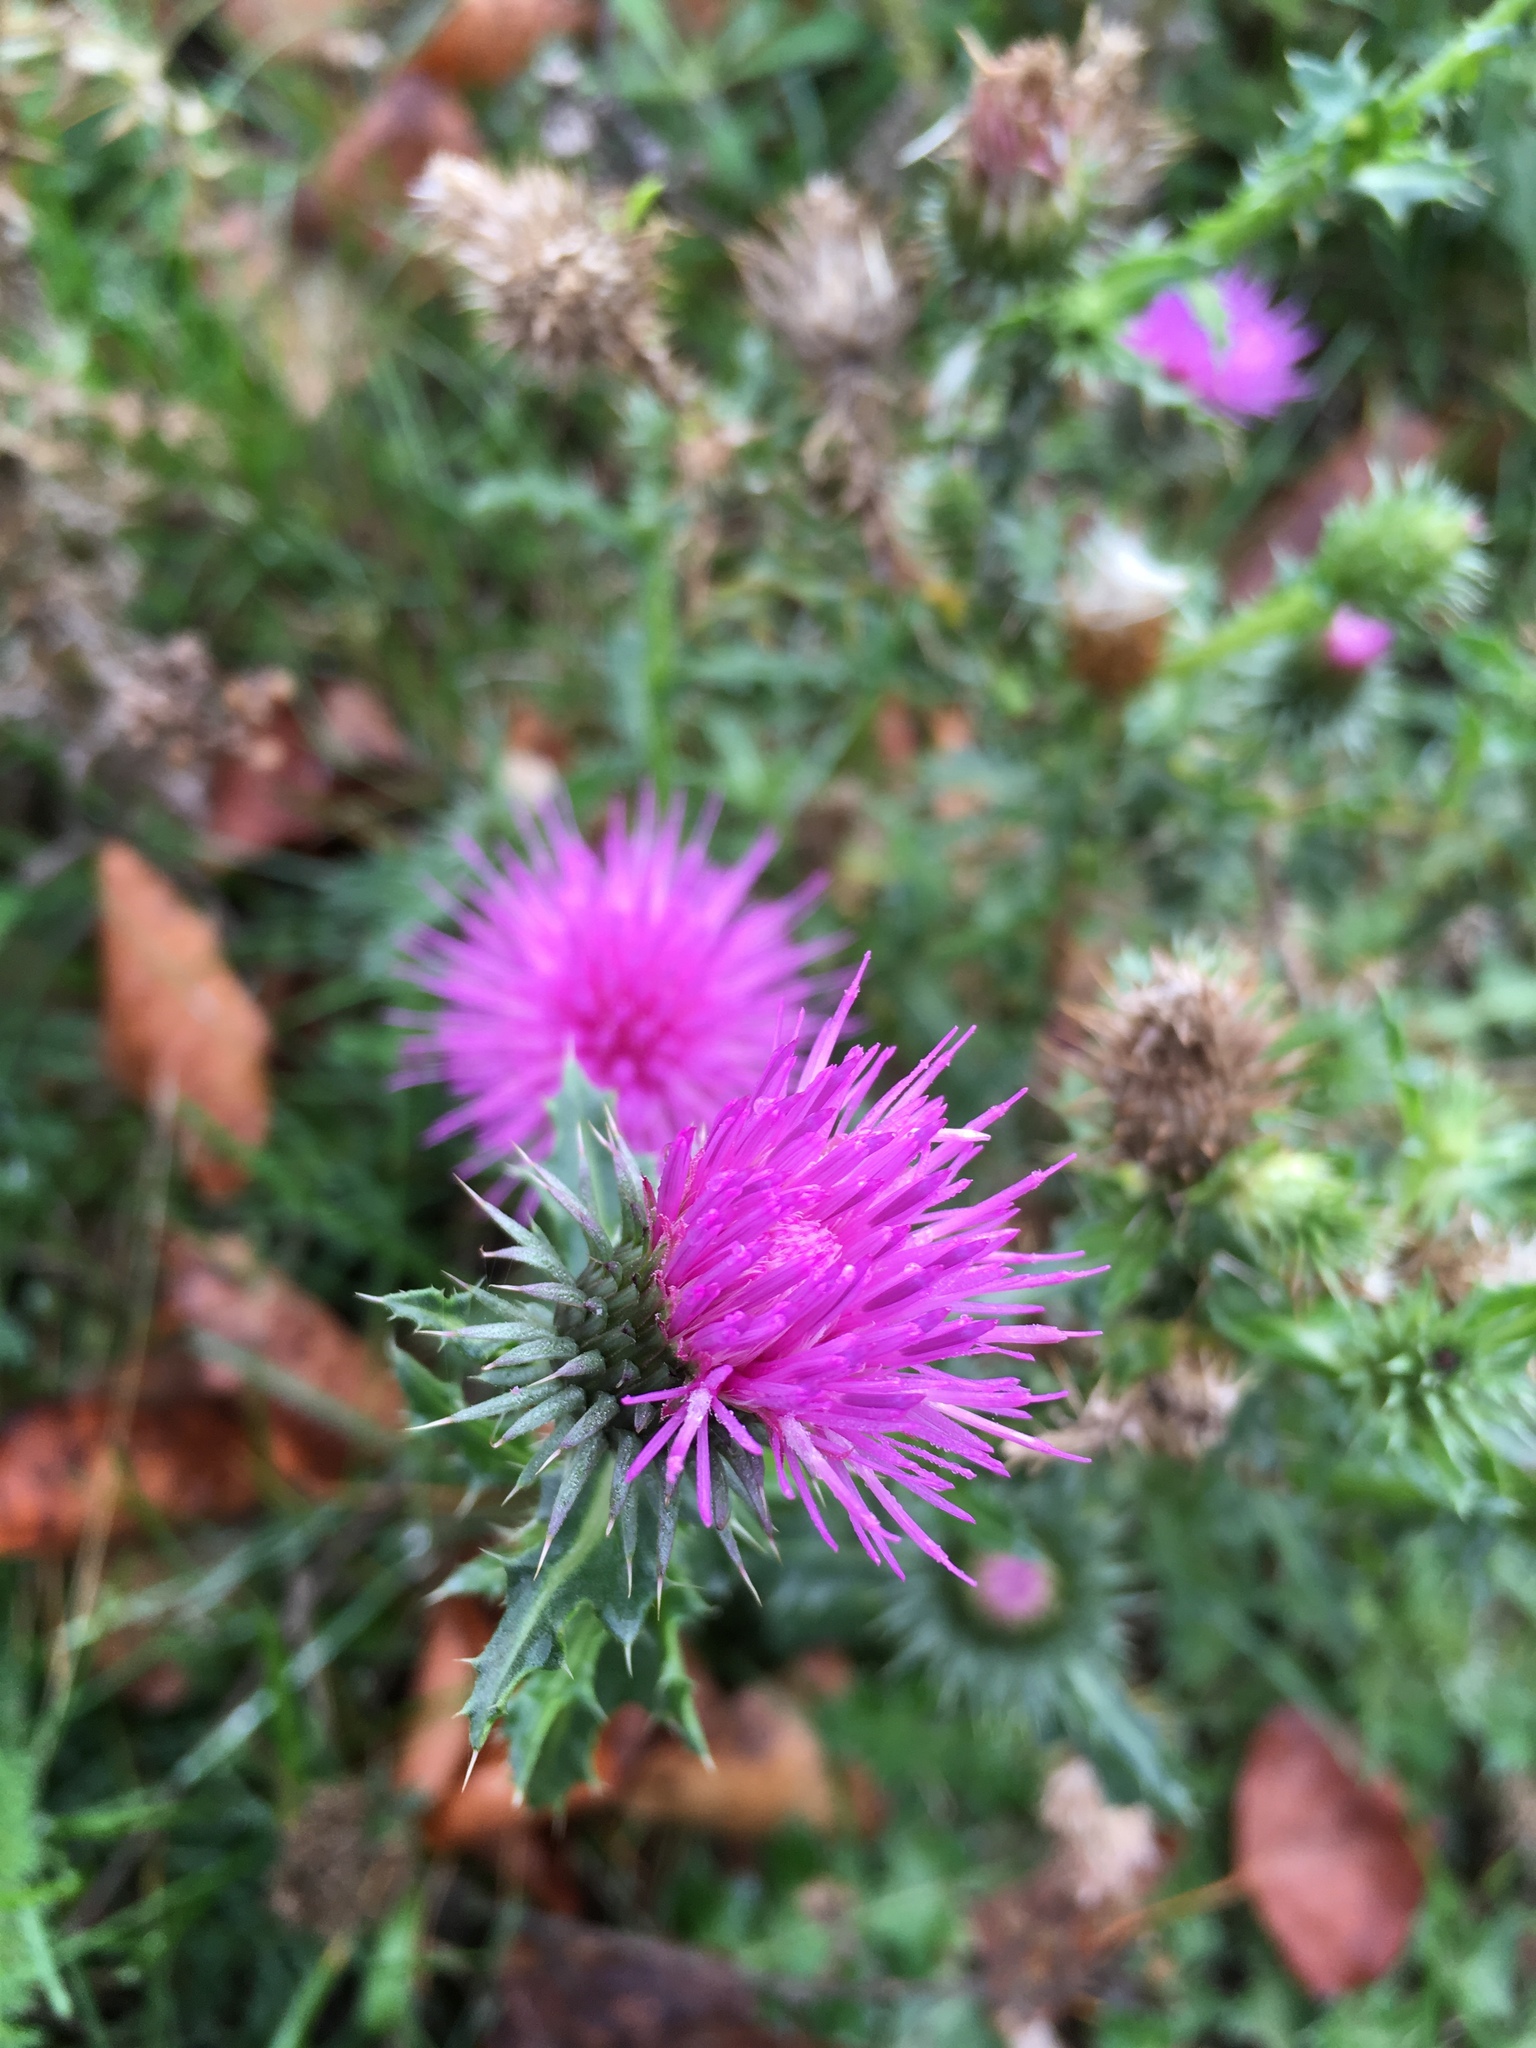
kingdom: Plantae
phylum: Tracheophyta
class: Magnoliopsida
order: Asterales
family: Asteraceae
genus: Carduus
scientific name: Carduus acanthoides
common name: Plumeless thistle
